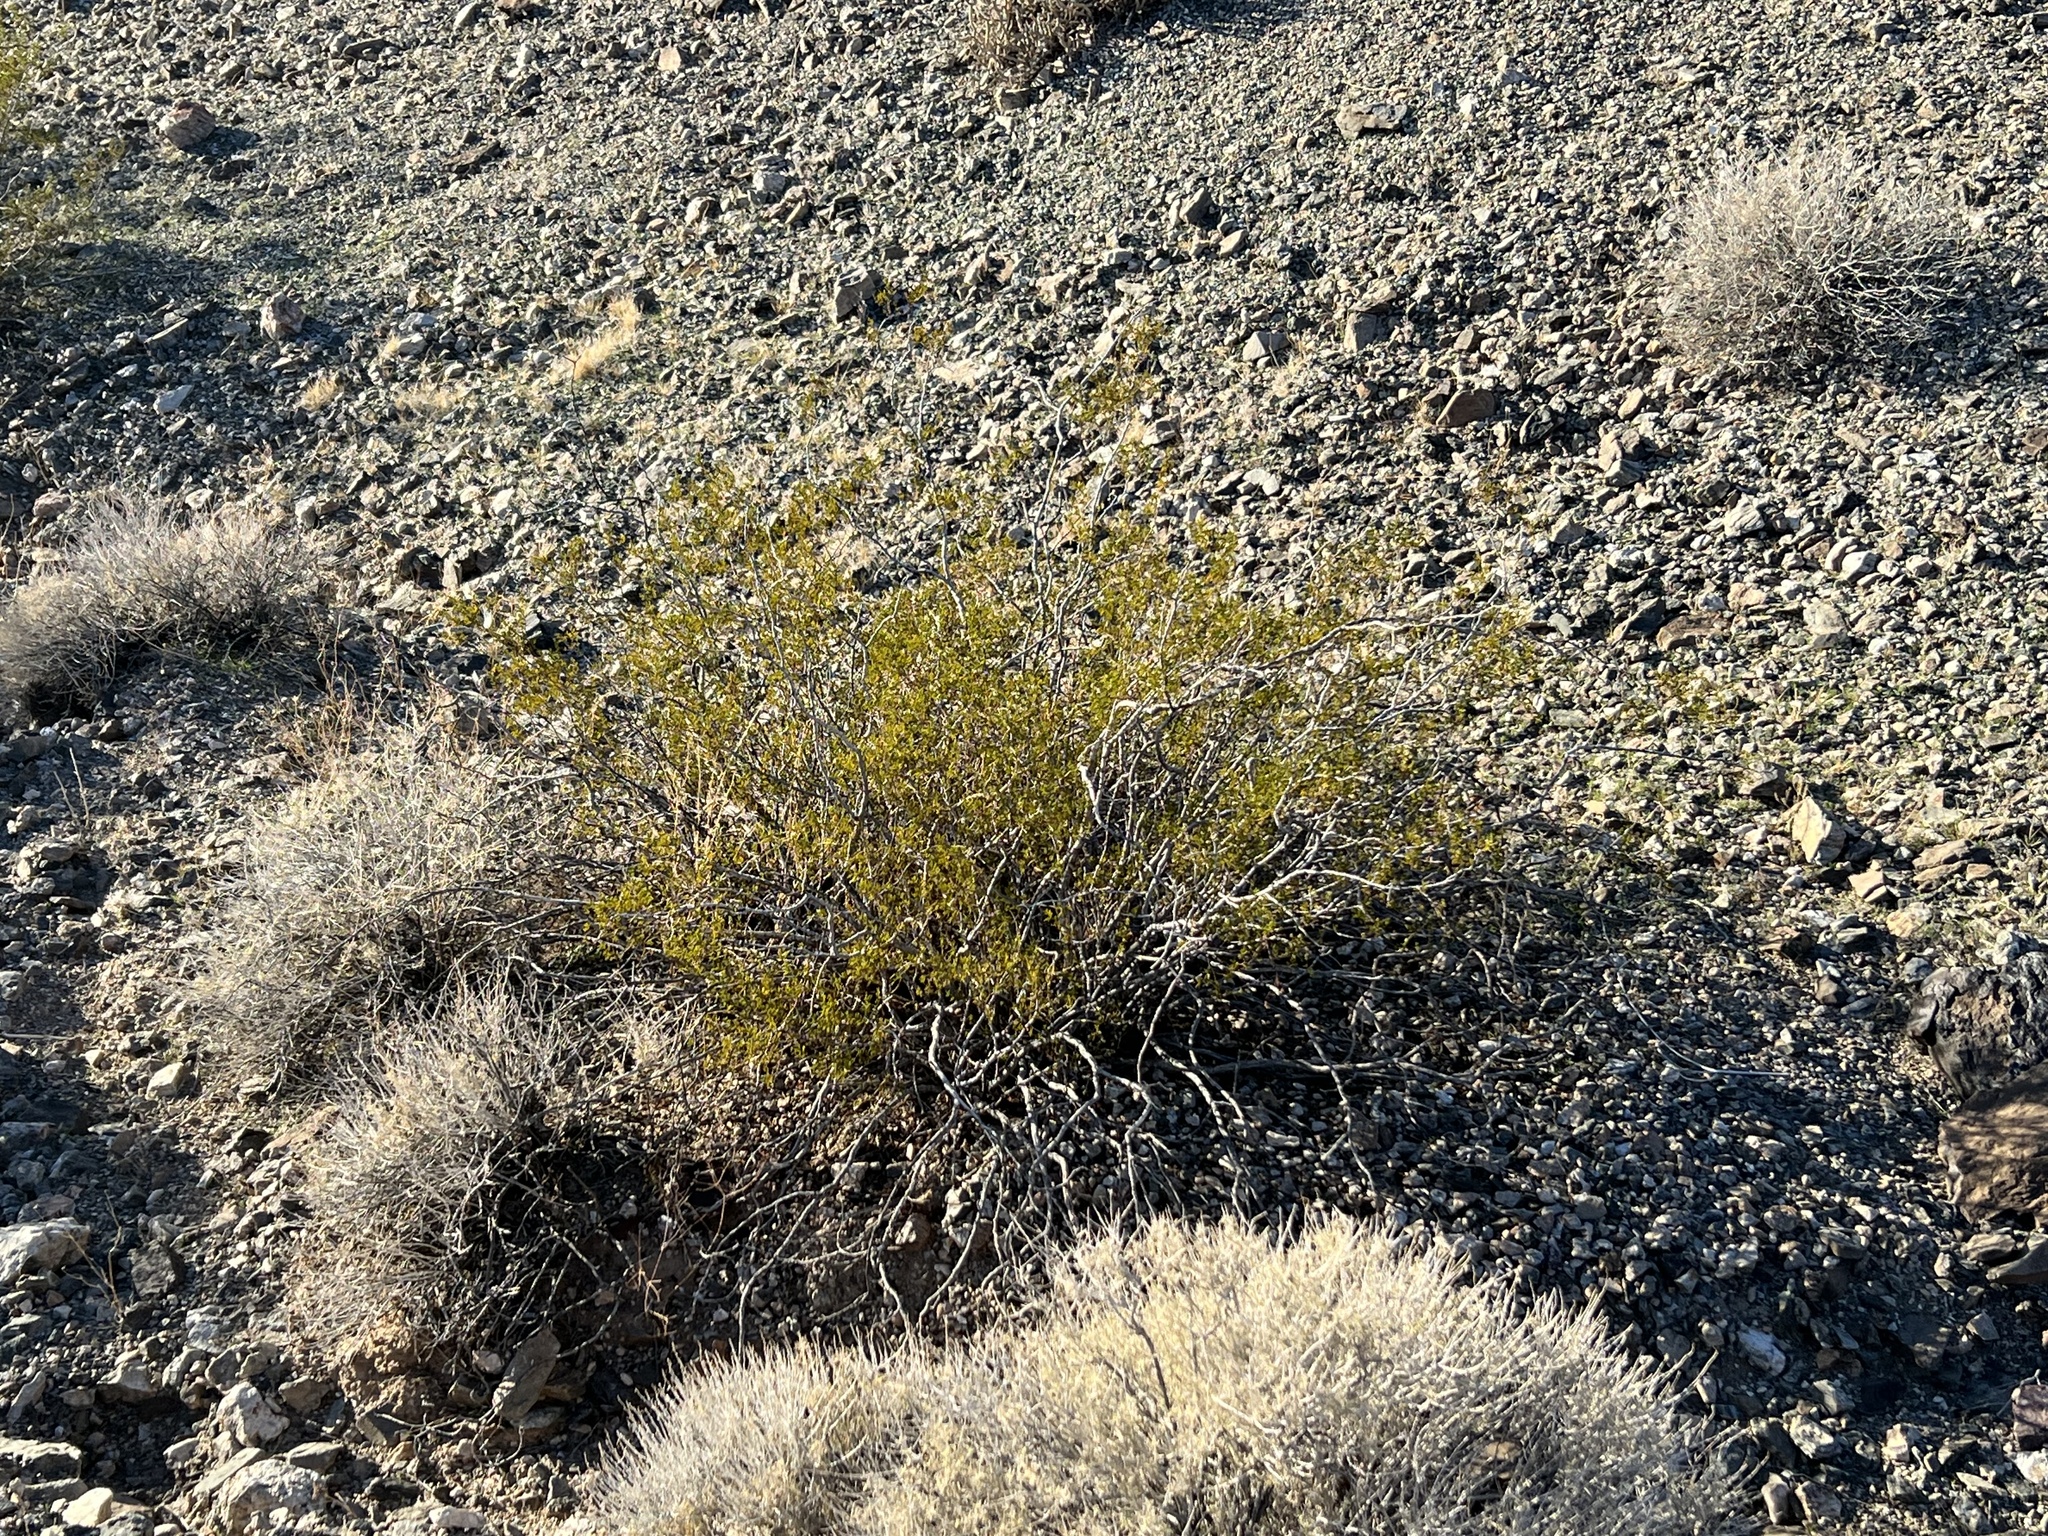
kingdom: Plantae
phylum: Tracheophyta
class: Magnoliopsida
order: Zygophyllales
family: Zygophyllaceae
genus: Larrea
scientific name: Larrea tridentata
